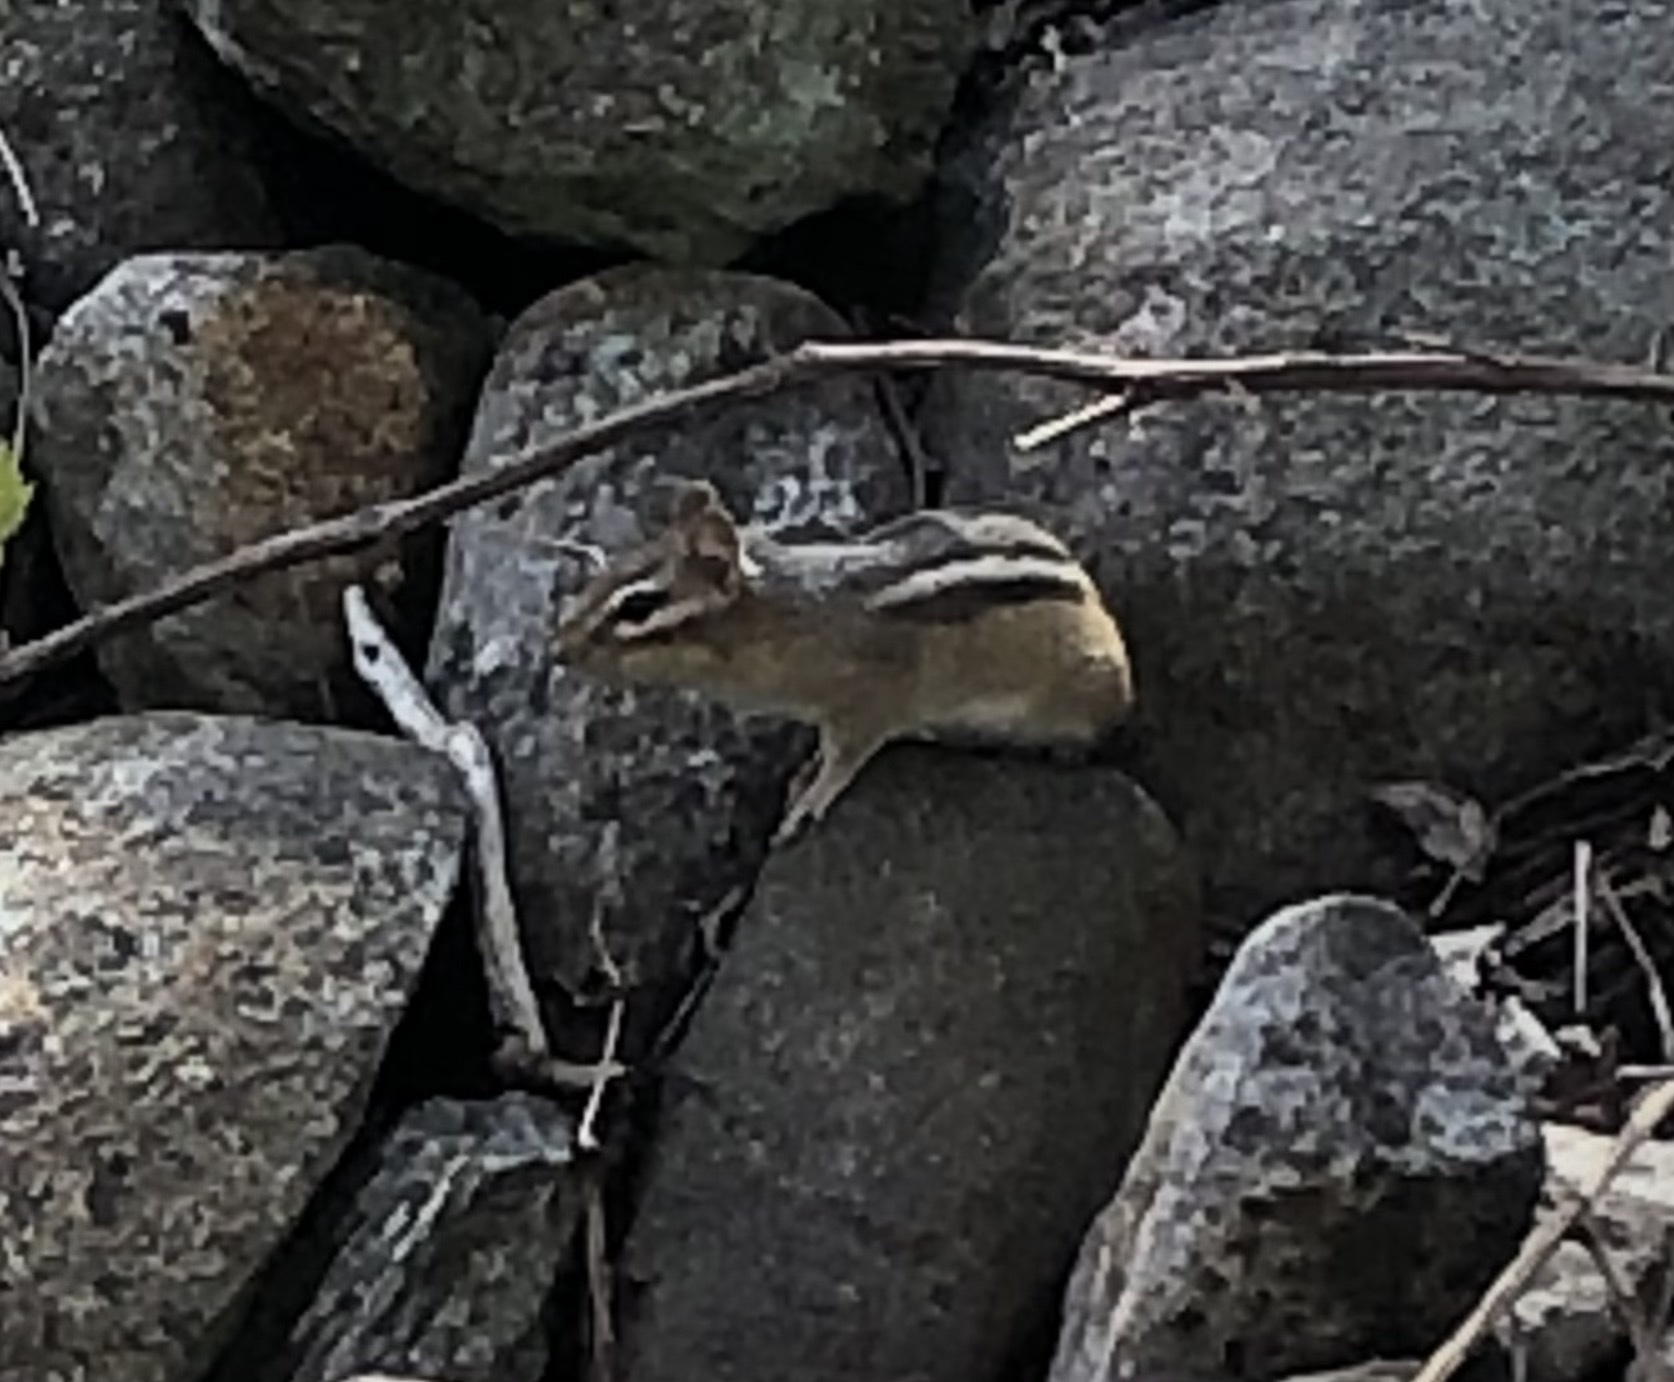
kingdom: Animalia
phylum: Chordata
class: Mammalia
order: Rodentia
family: Sciuridae
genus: Tamias
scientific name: Tamias striatus
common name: Eastern chipmunk
